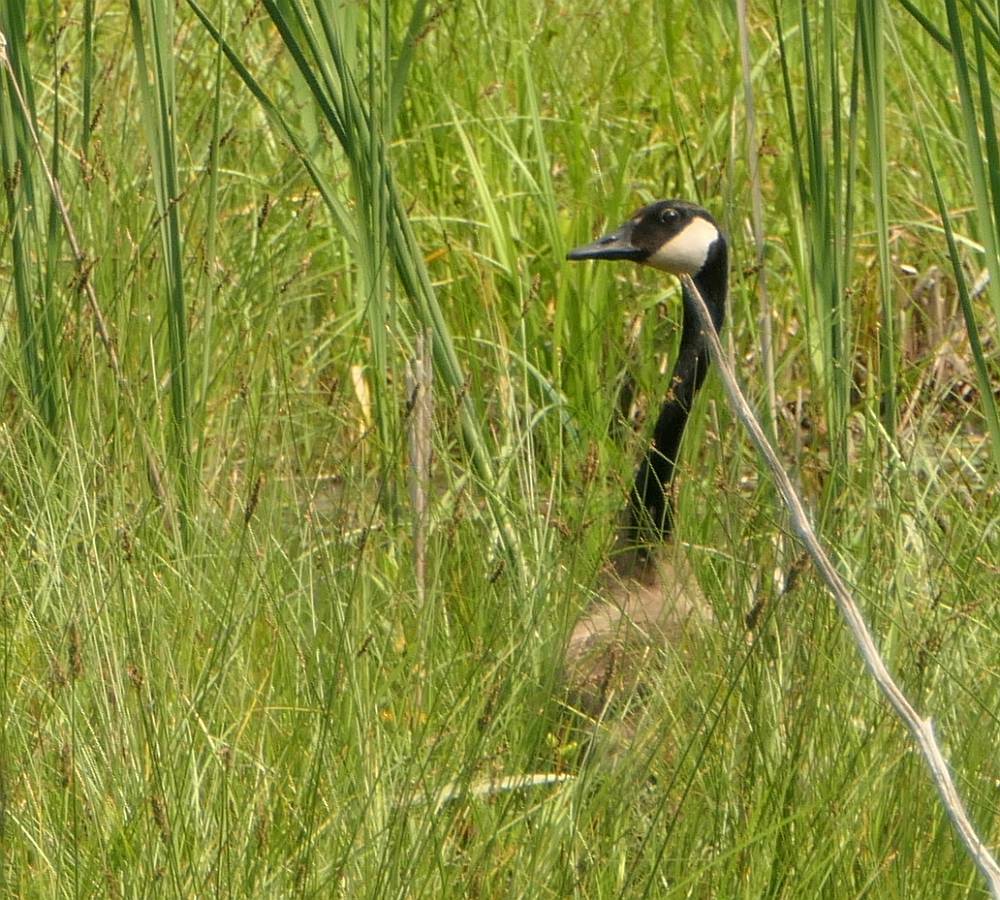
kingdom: Animalia
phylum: Chordata
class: Aves
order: Anseriformes
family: Anatidae
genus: Branta
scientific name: Branta canadensis
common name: Canada goose
